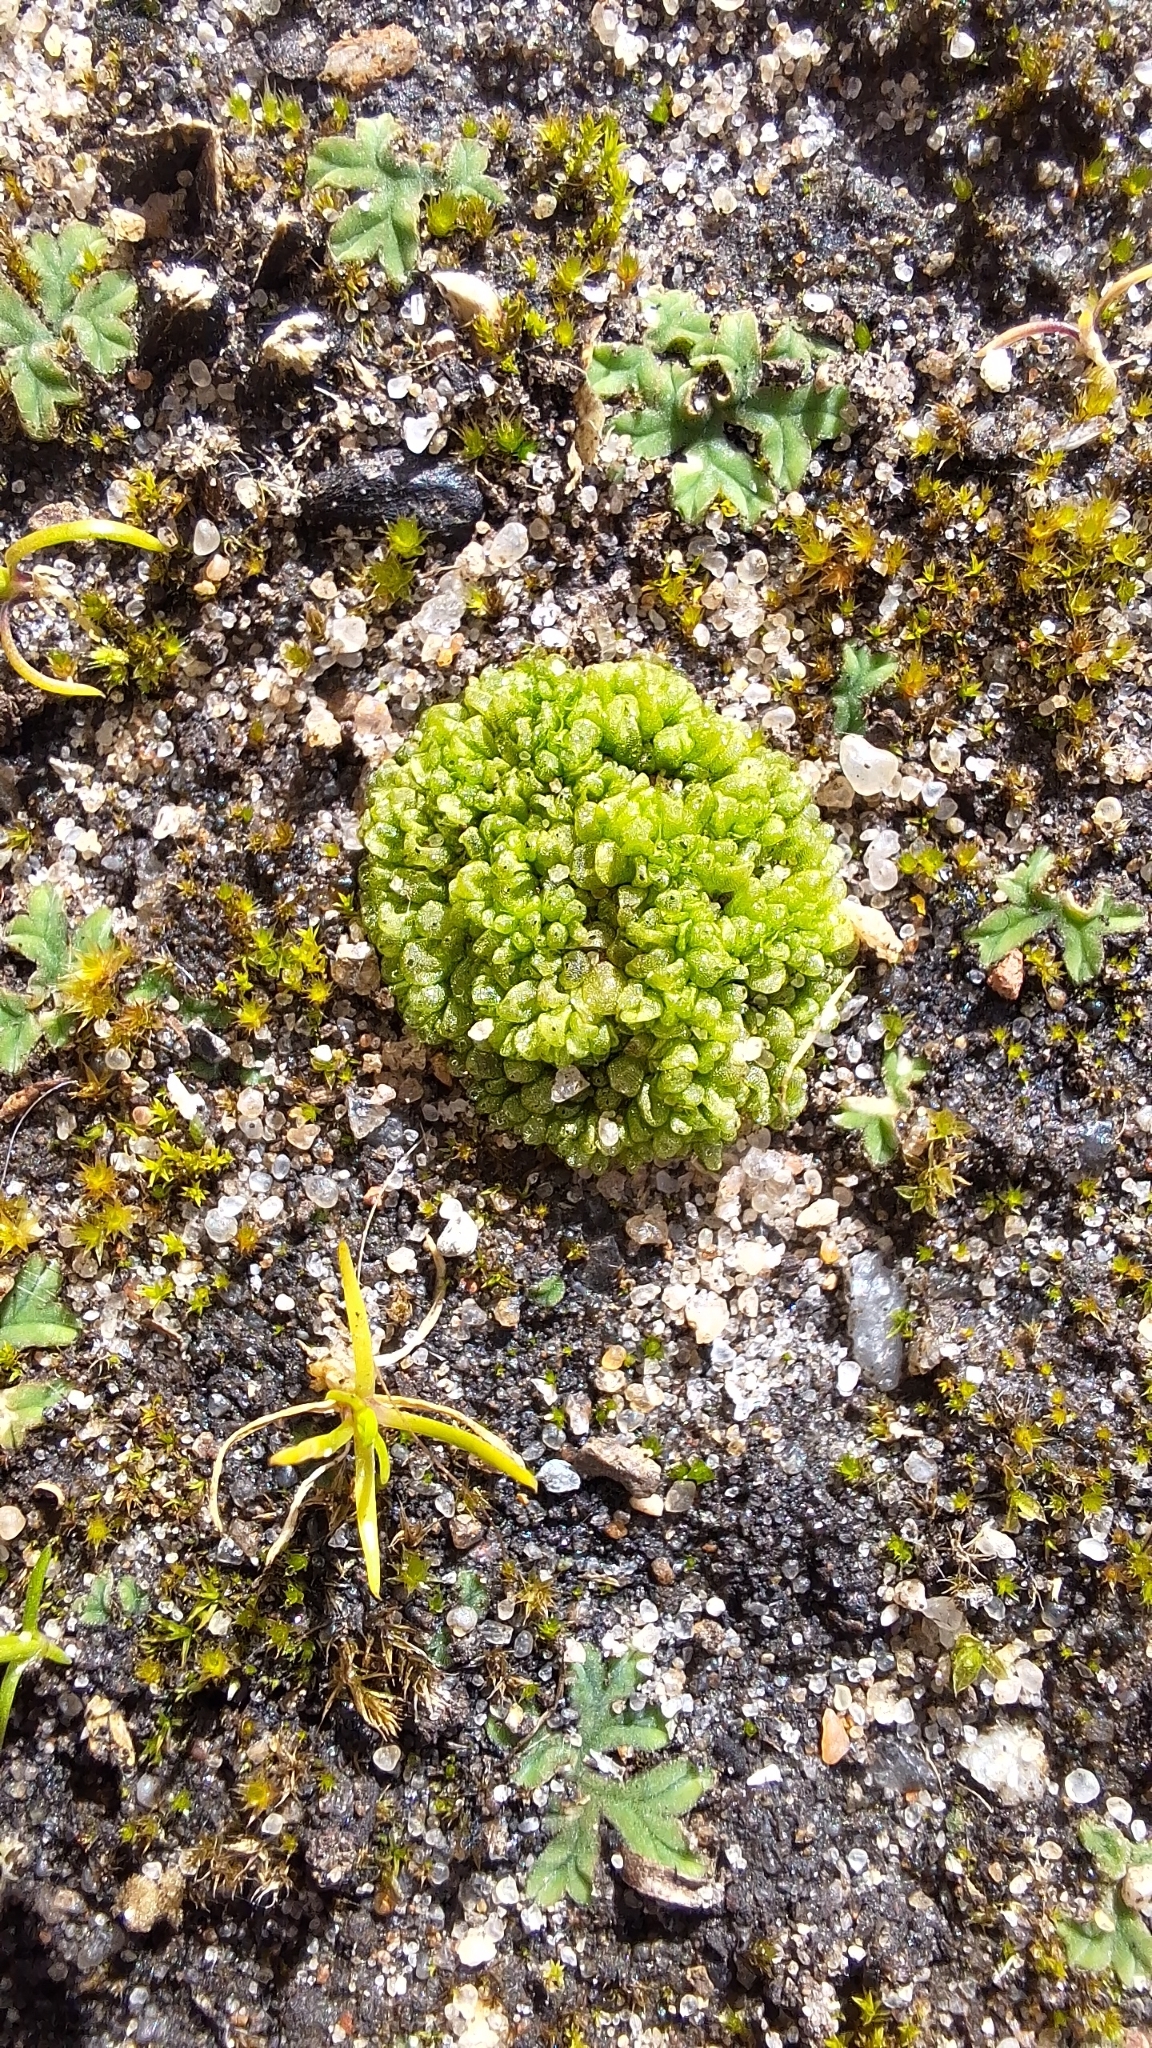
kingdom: Plantae
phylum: Marchantiophyta
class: Marchantiopsida
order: Sphaerocarpales
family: Sphaerocarpaceae
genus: Sphaerocarpos
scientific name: Sphaerocarpos texanus
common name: Texas balloonwort
